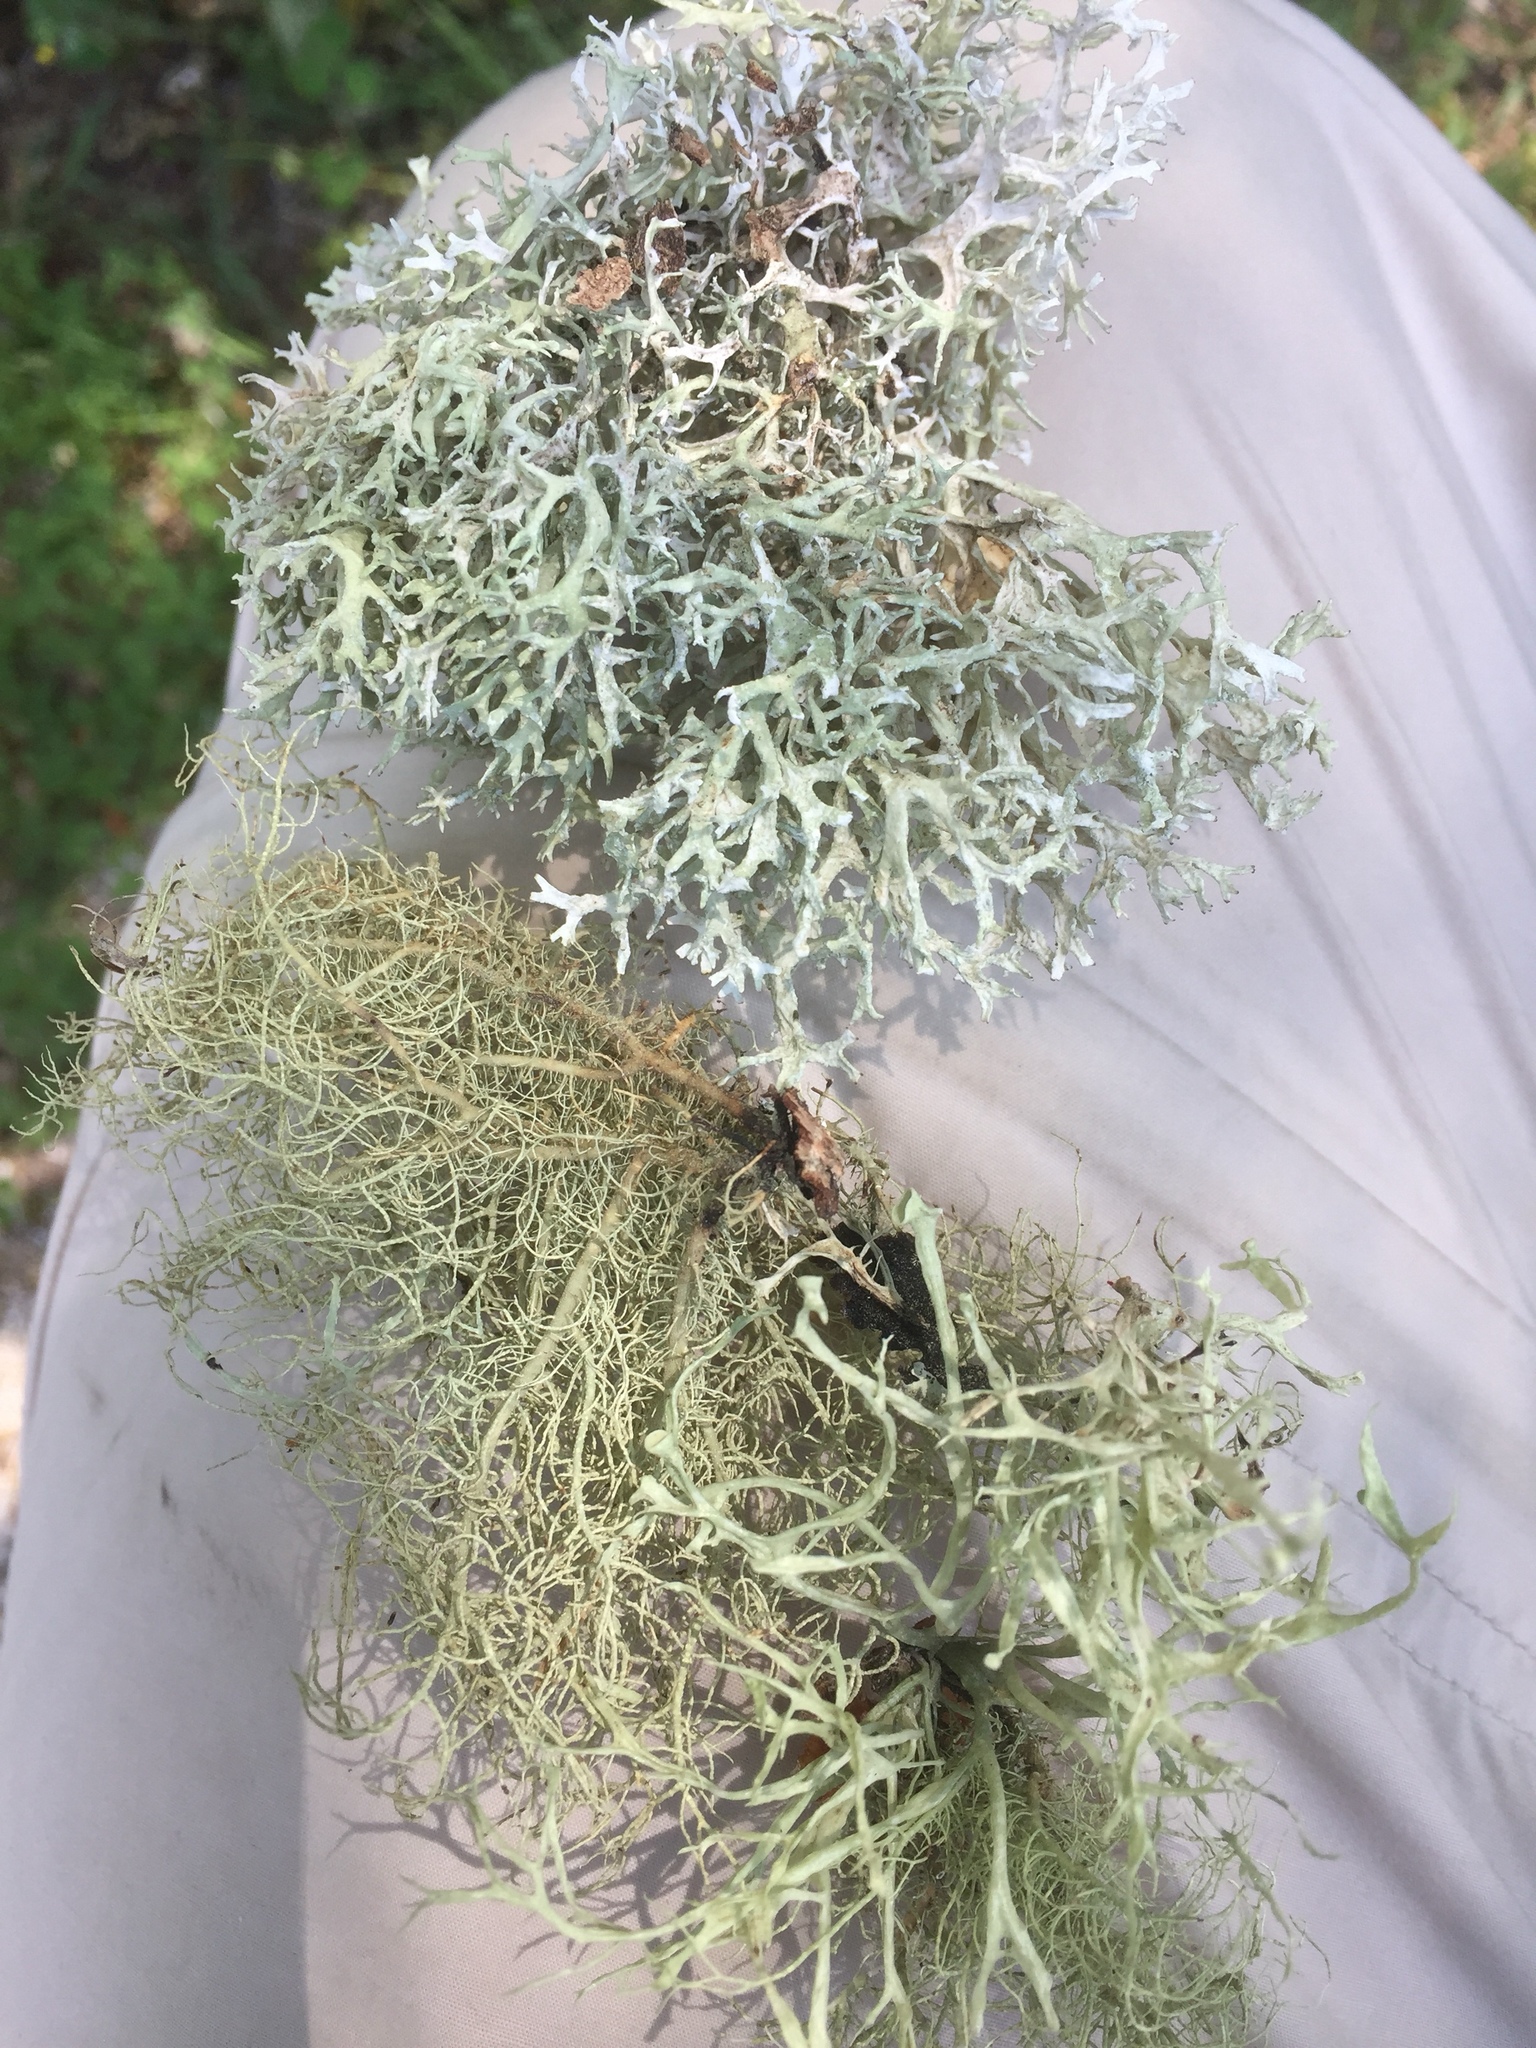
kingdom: Fungi
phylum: Ascomycota
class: Lecanoromycetes
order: Lecanorales
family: Parmeliaceae
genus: Evernia
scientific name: Evernia prunastri
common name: Oak moss
